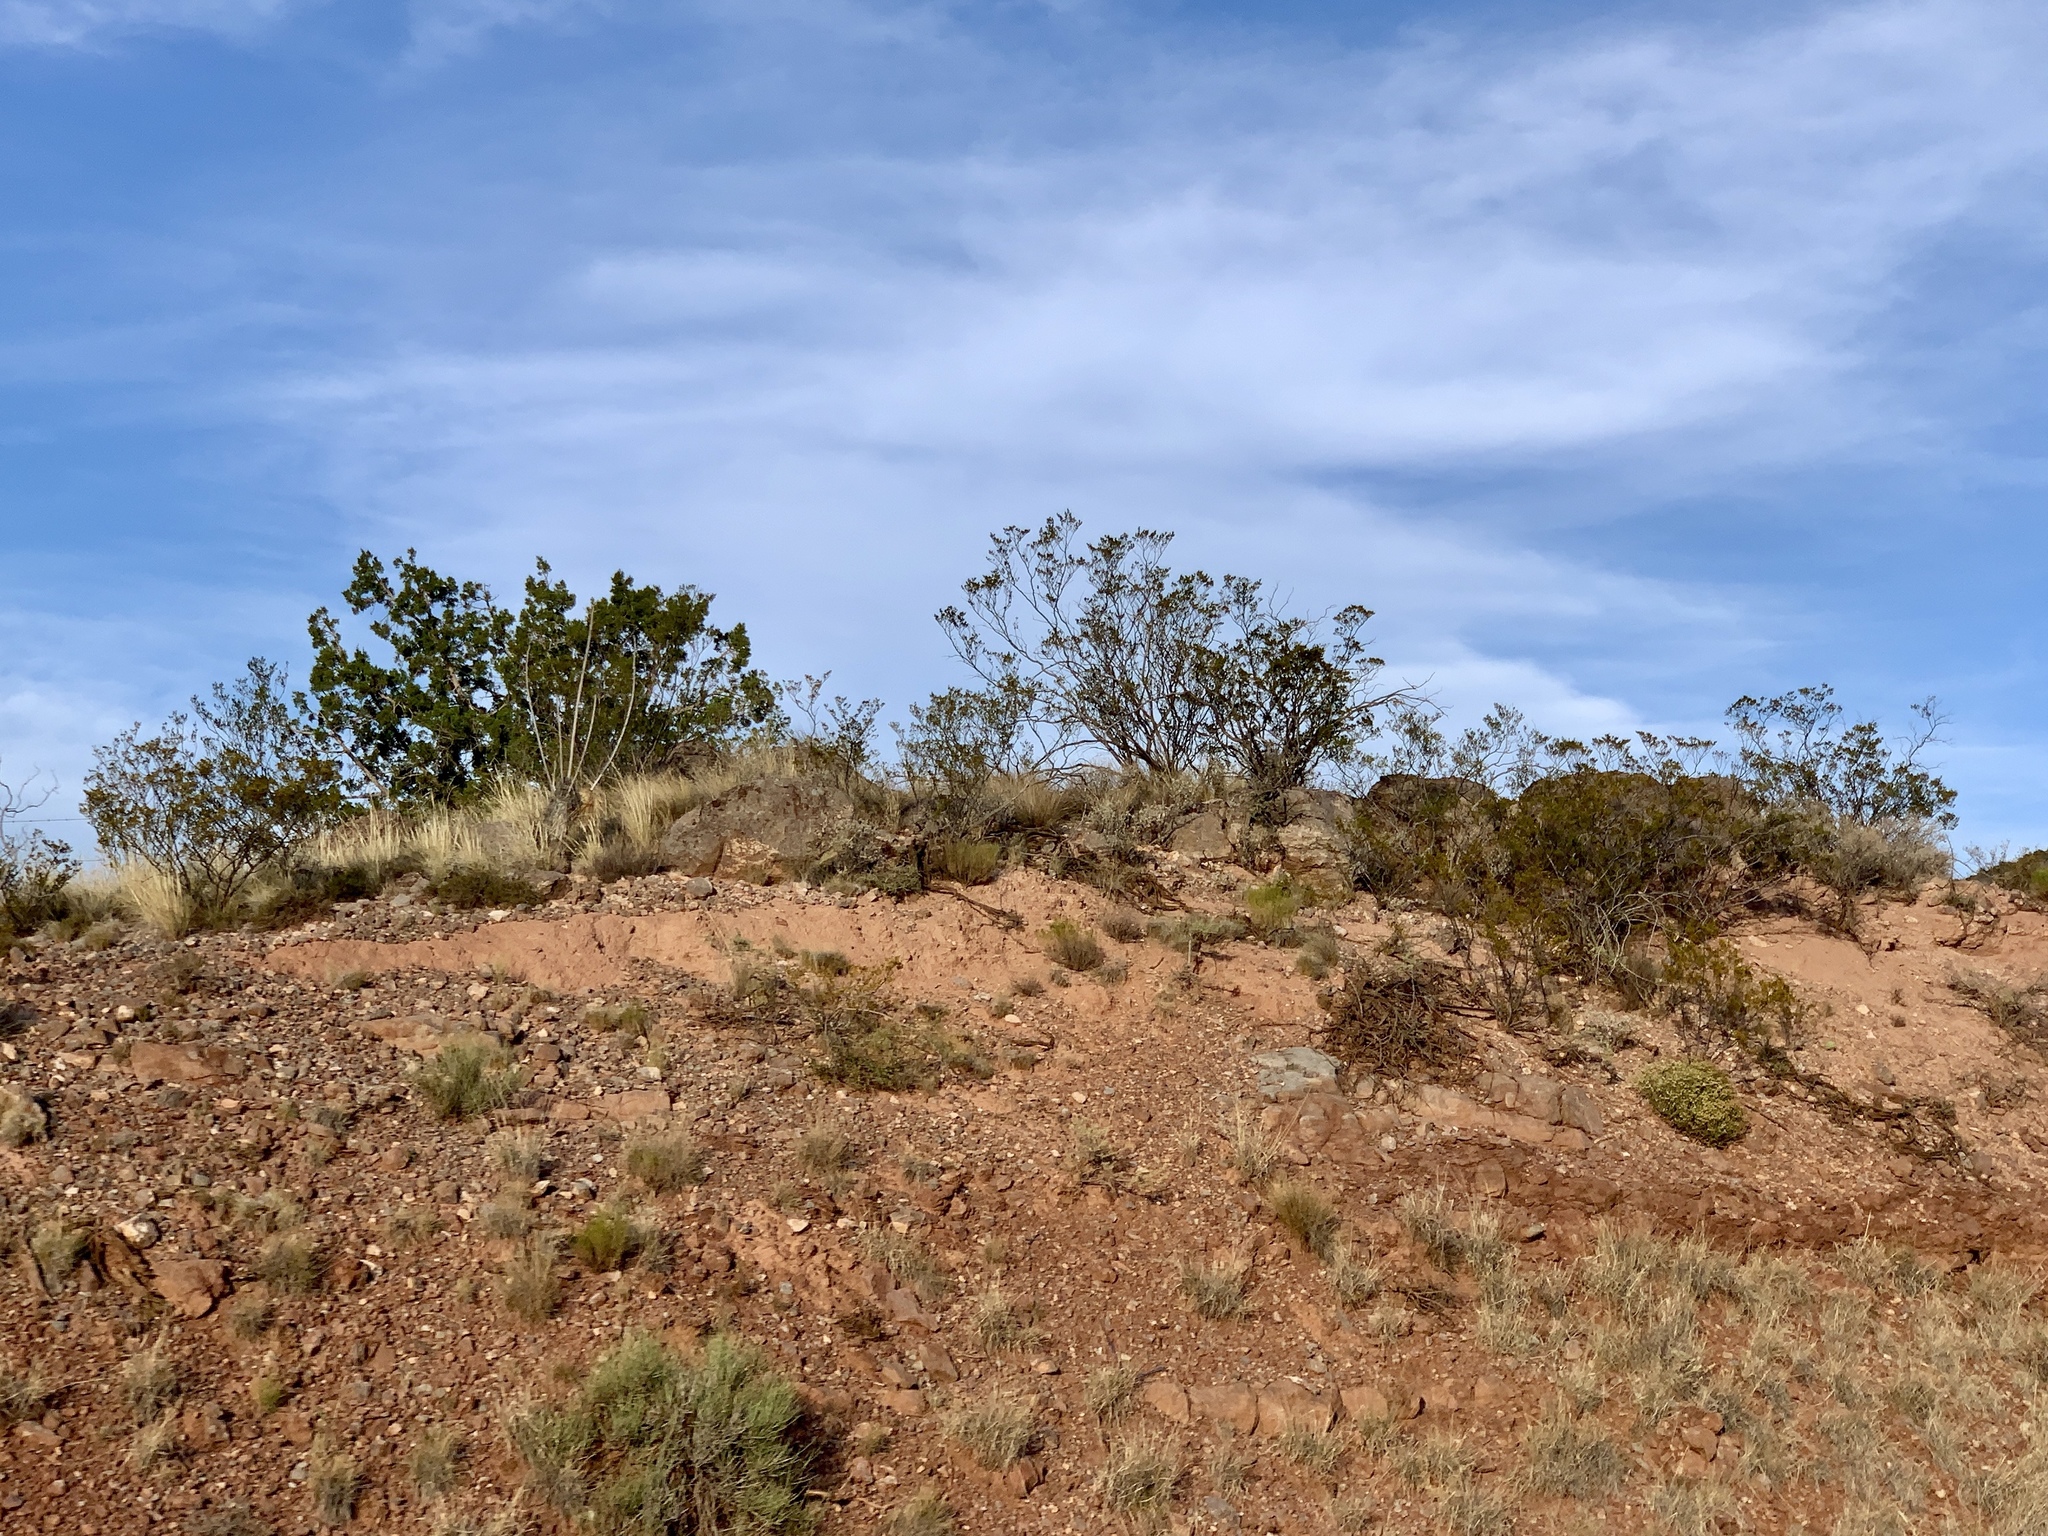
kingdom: Plantae
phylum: Tracheophyta
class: Magnoliopsida
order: Zygophyllales
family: Zygophyllaceae
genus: Larrea
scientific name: Larrea tridentata
